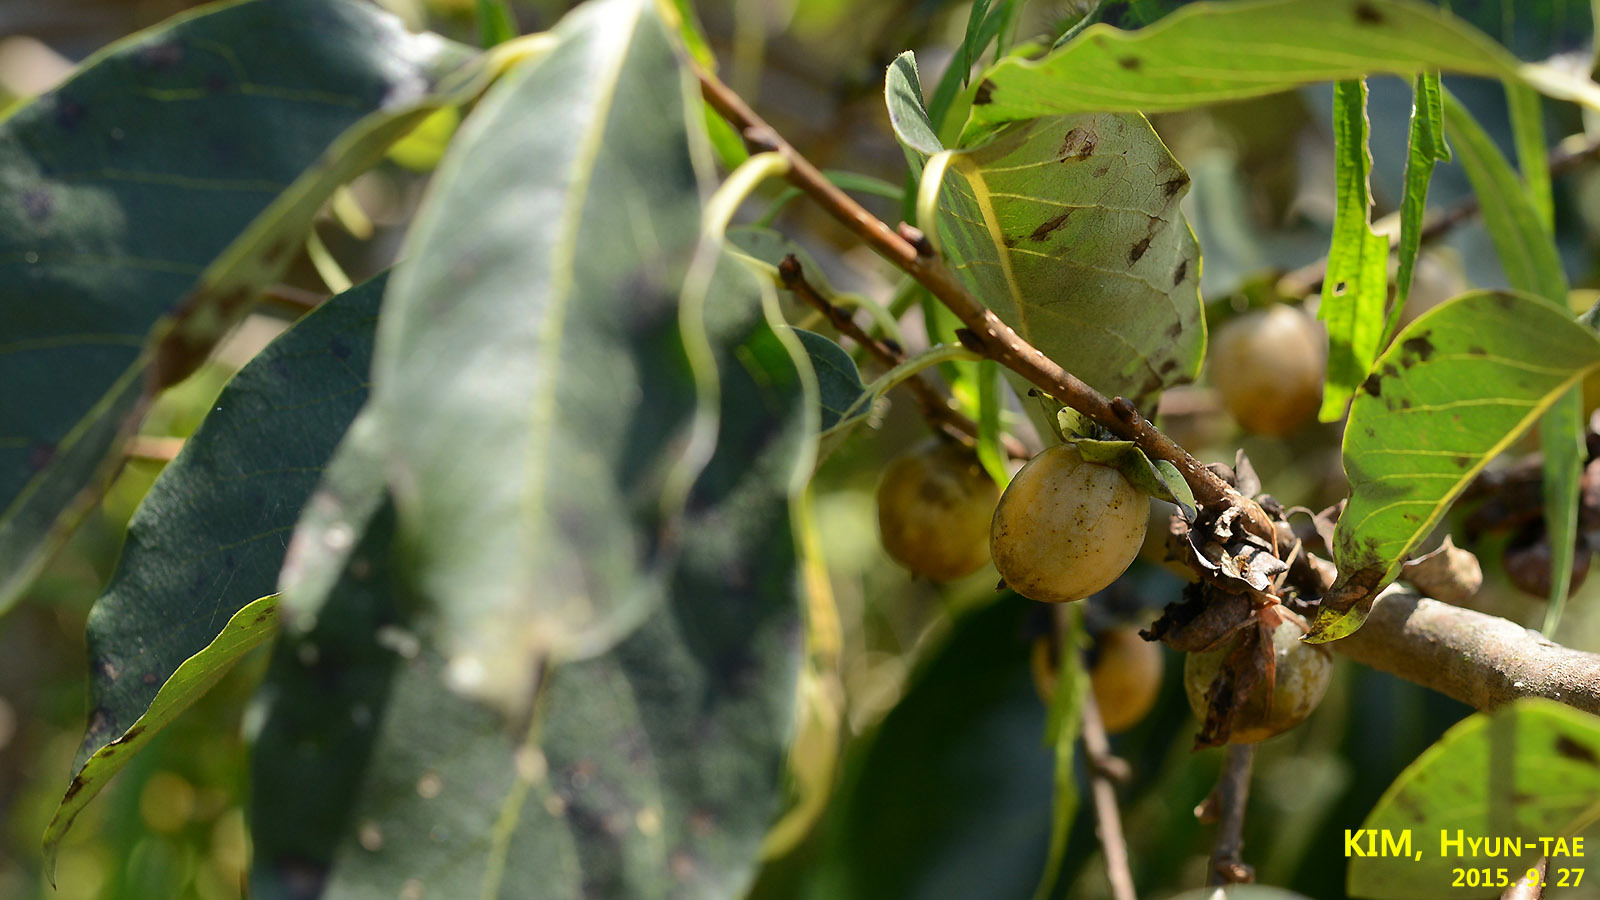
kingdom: Plantae
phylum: Tracheophyta
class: Magnoliopsida
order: Ericales
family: Ebenaceae
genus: Diospyros
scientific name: Diospyros lotus
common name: Date-plum
